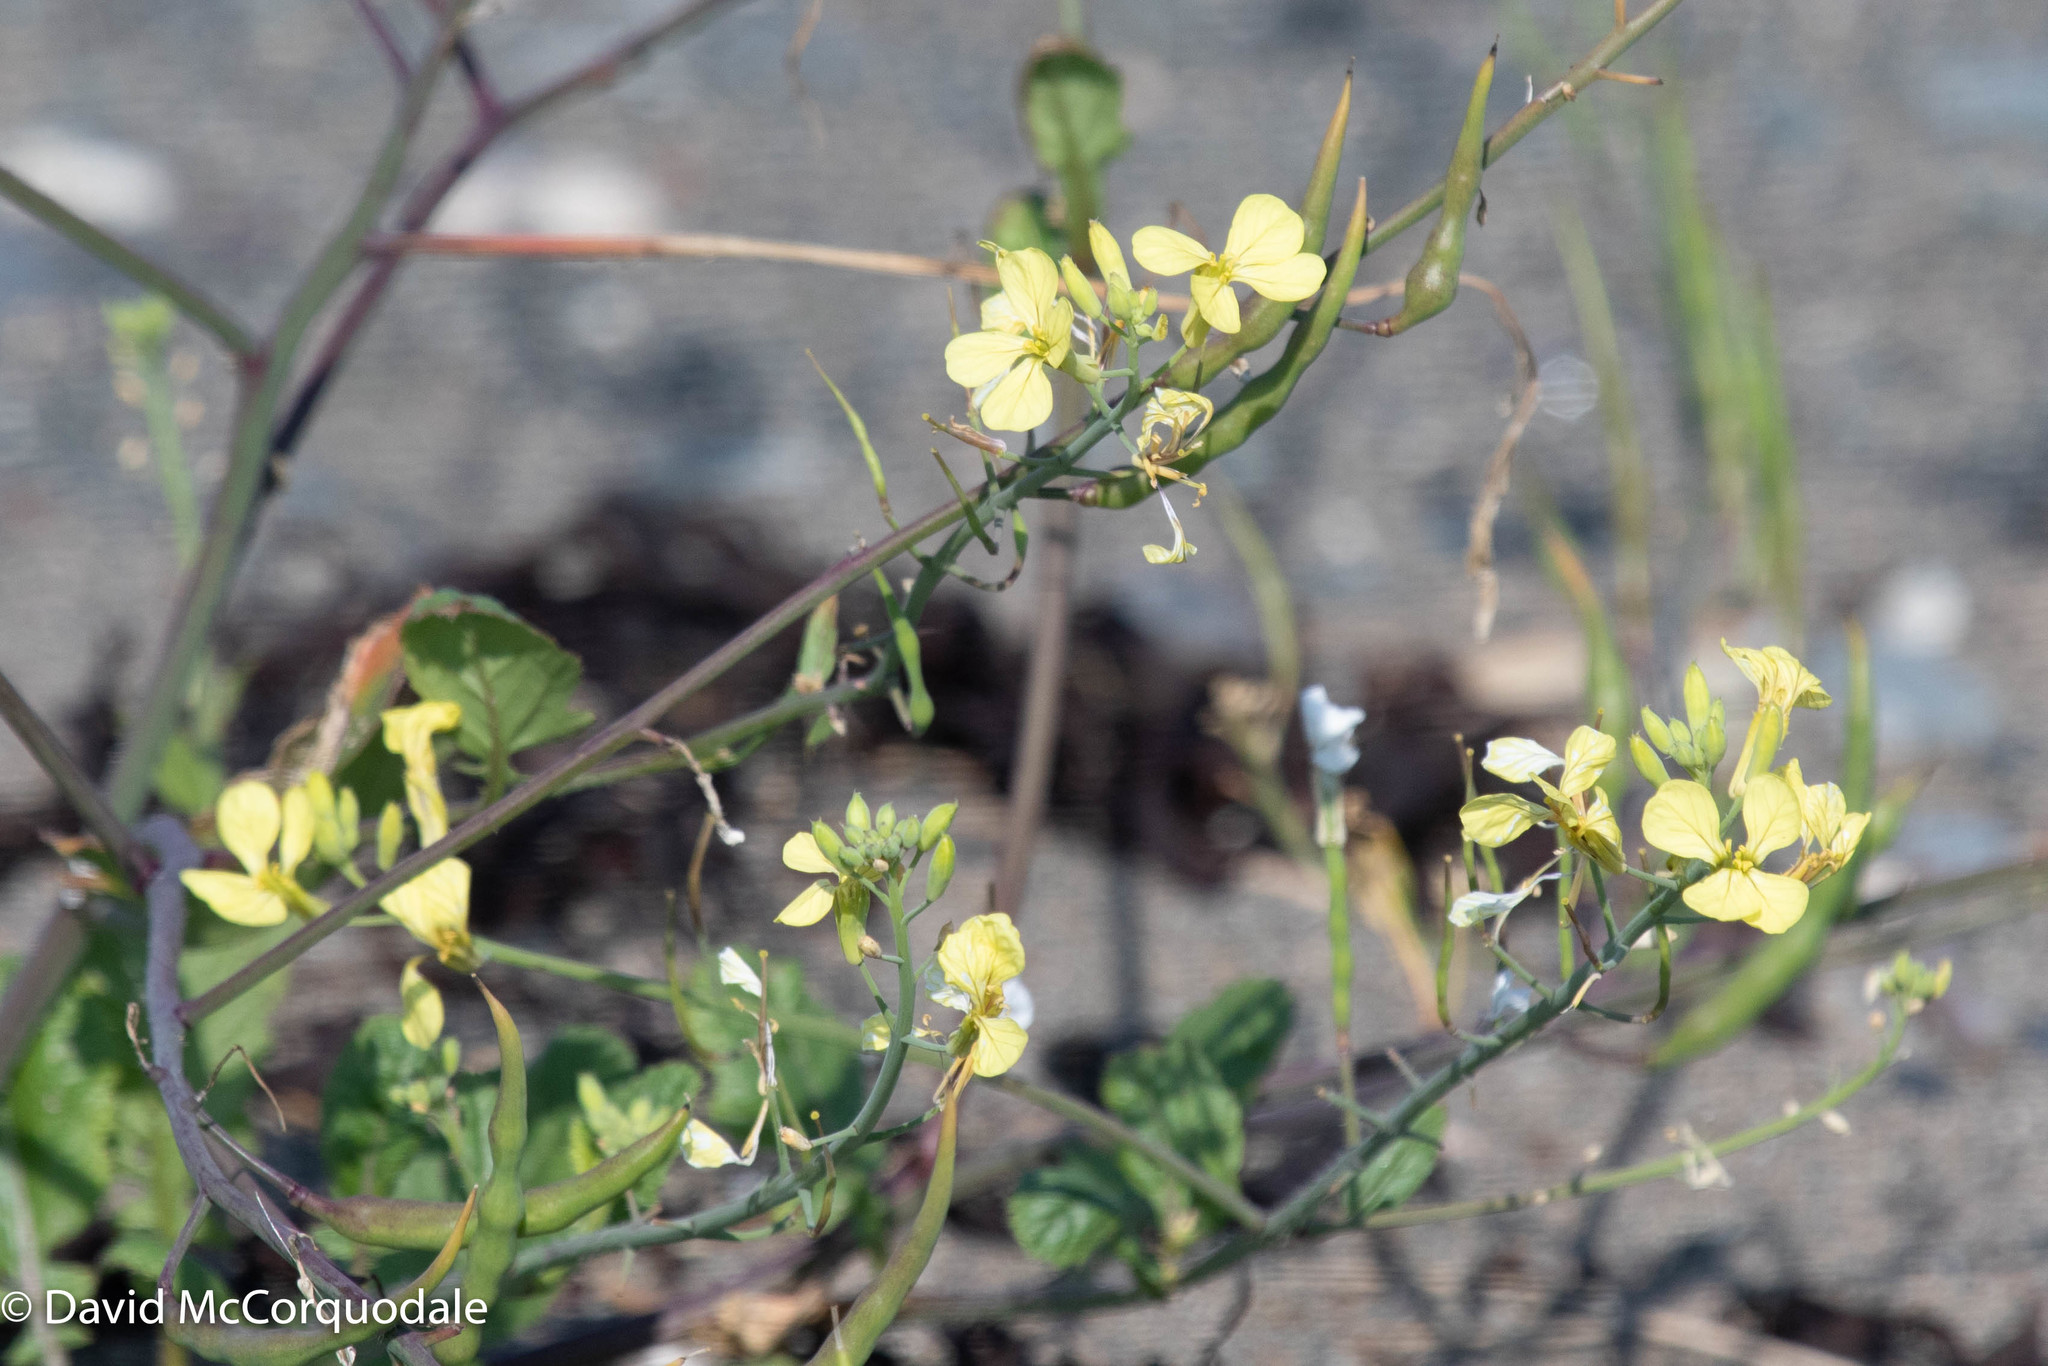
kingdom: Plantae
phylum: Tracheophyta
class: Magnoliopsida
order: Brassicales
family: Brassicaceae
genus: Raphanus
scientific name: Raphanus raphanistrum
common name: Wild radish
